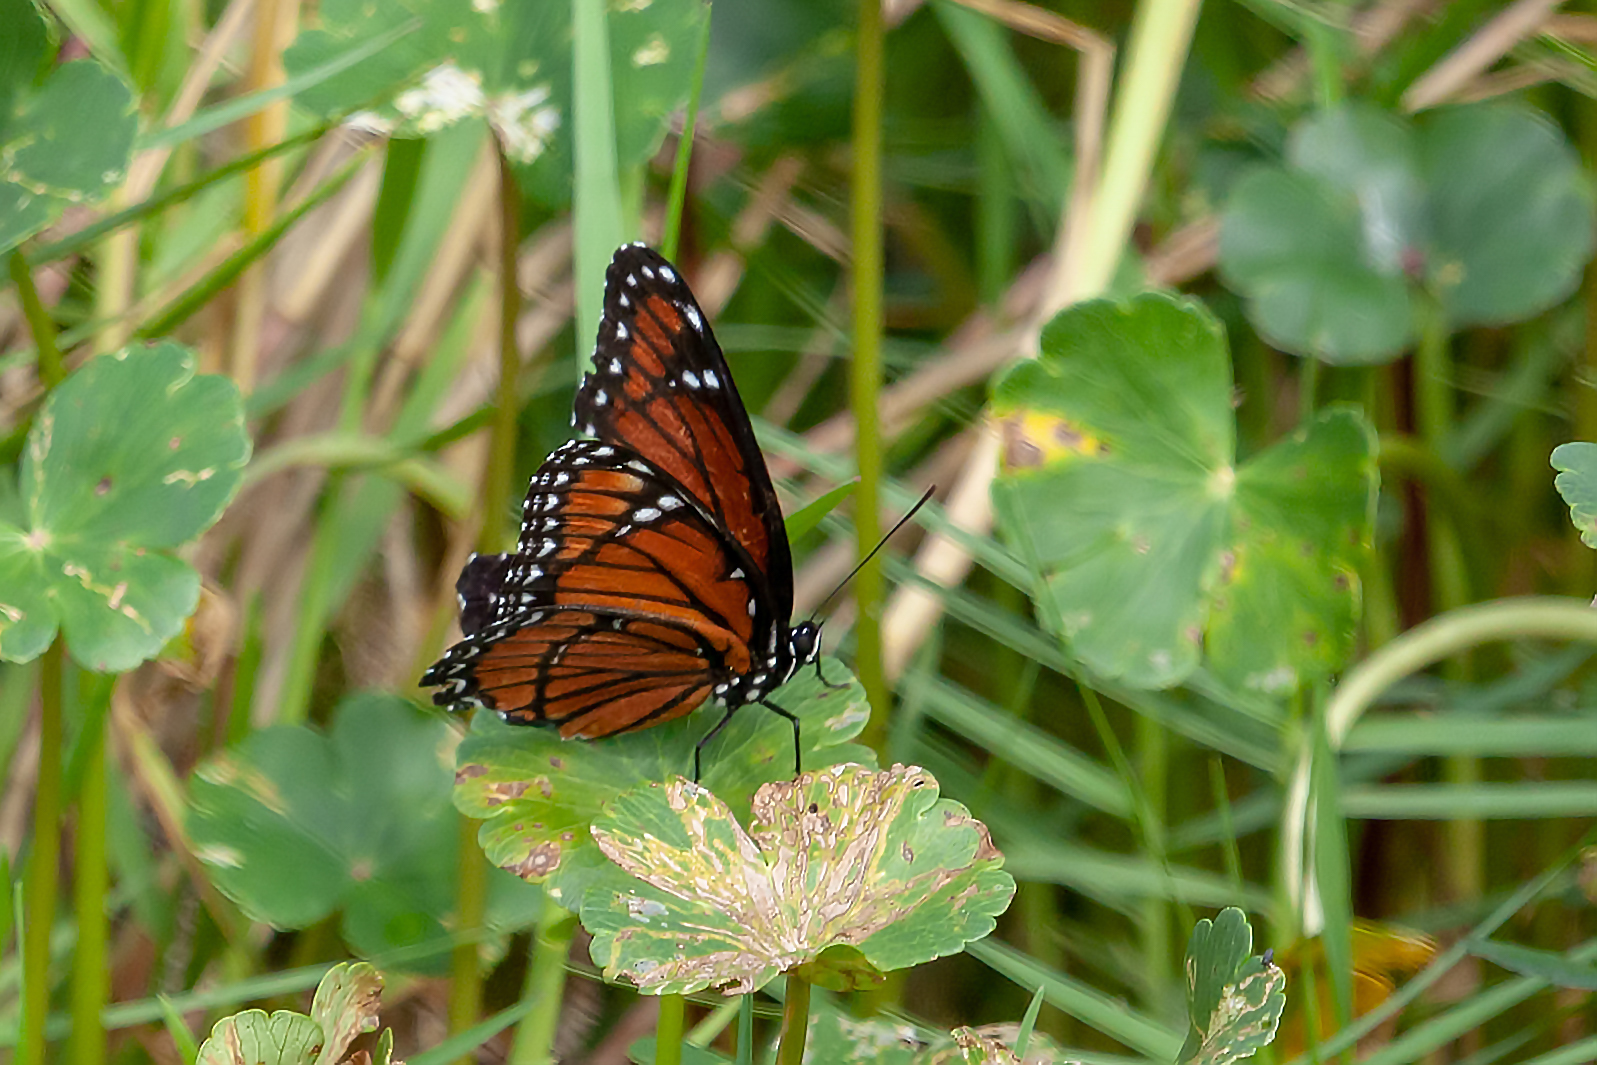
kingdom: Animalia
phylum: Arthropoda
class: Insecta
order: Lepidoptera
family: Nymphalidae
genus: Limenitis
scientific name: Limenitis archippus
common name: Viceroy
